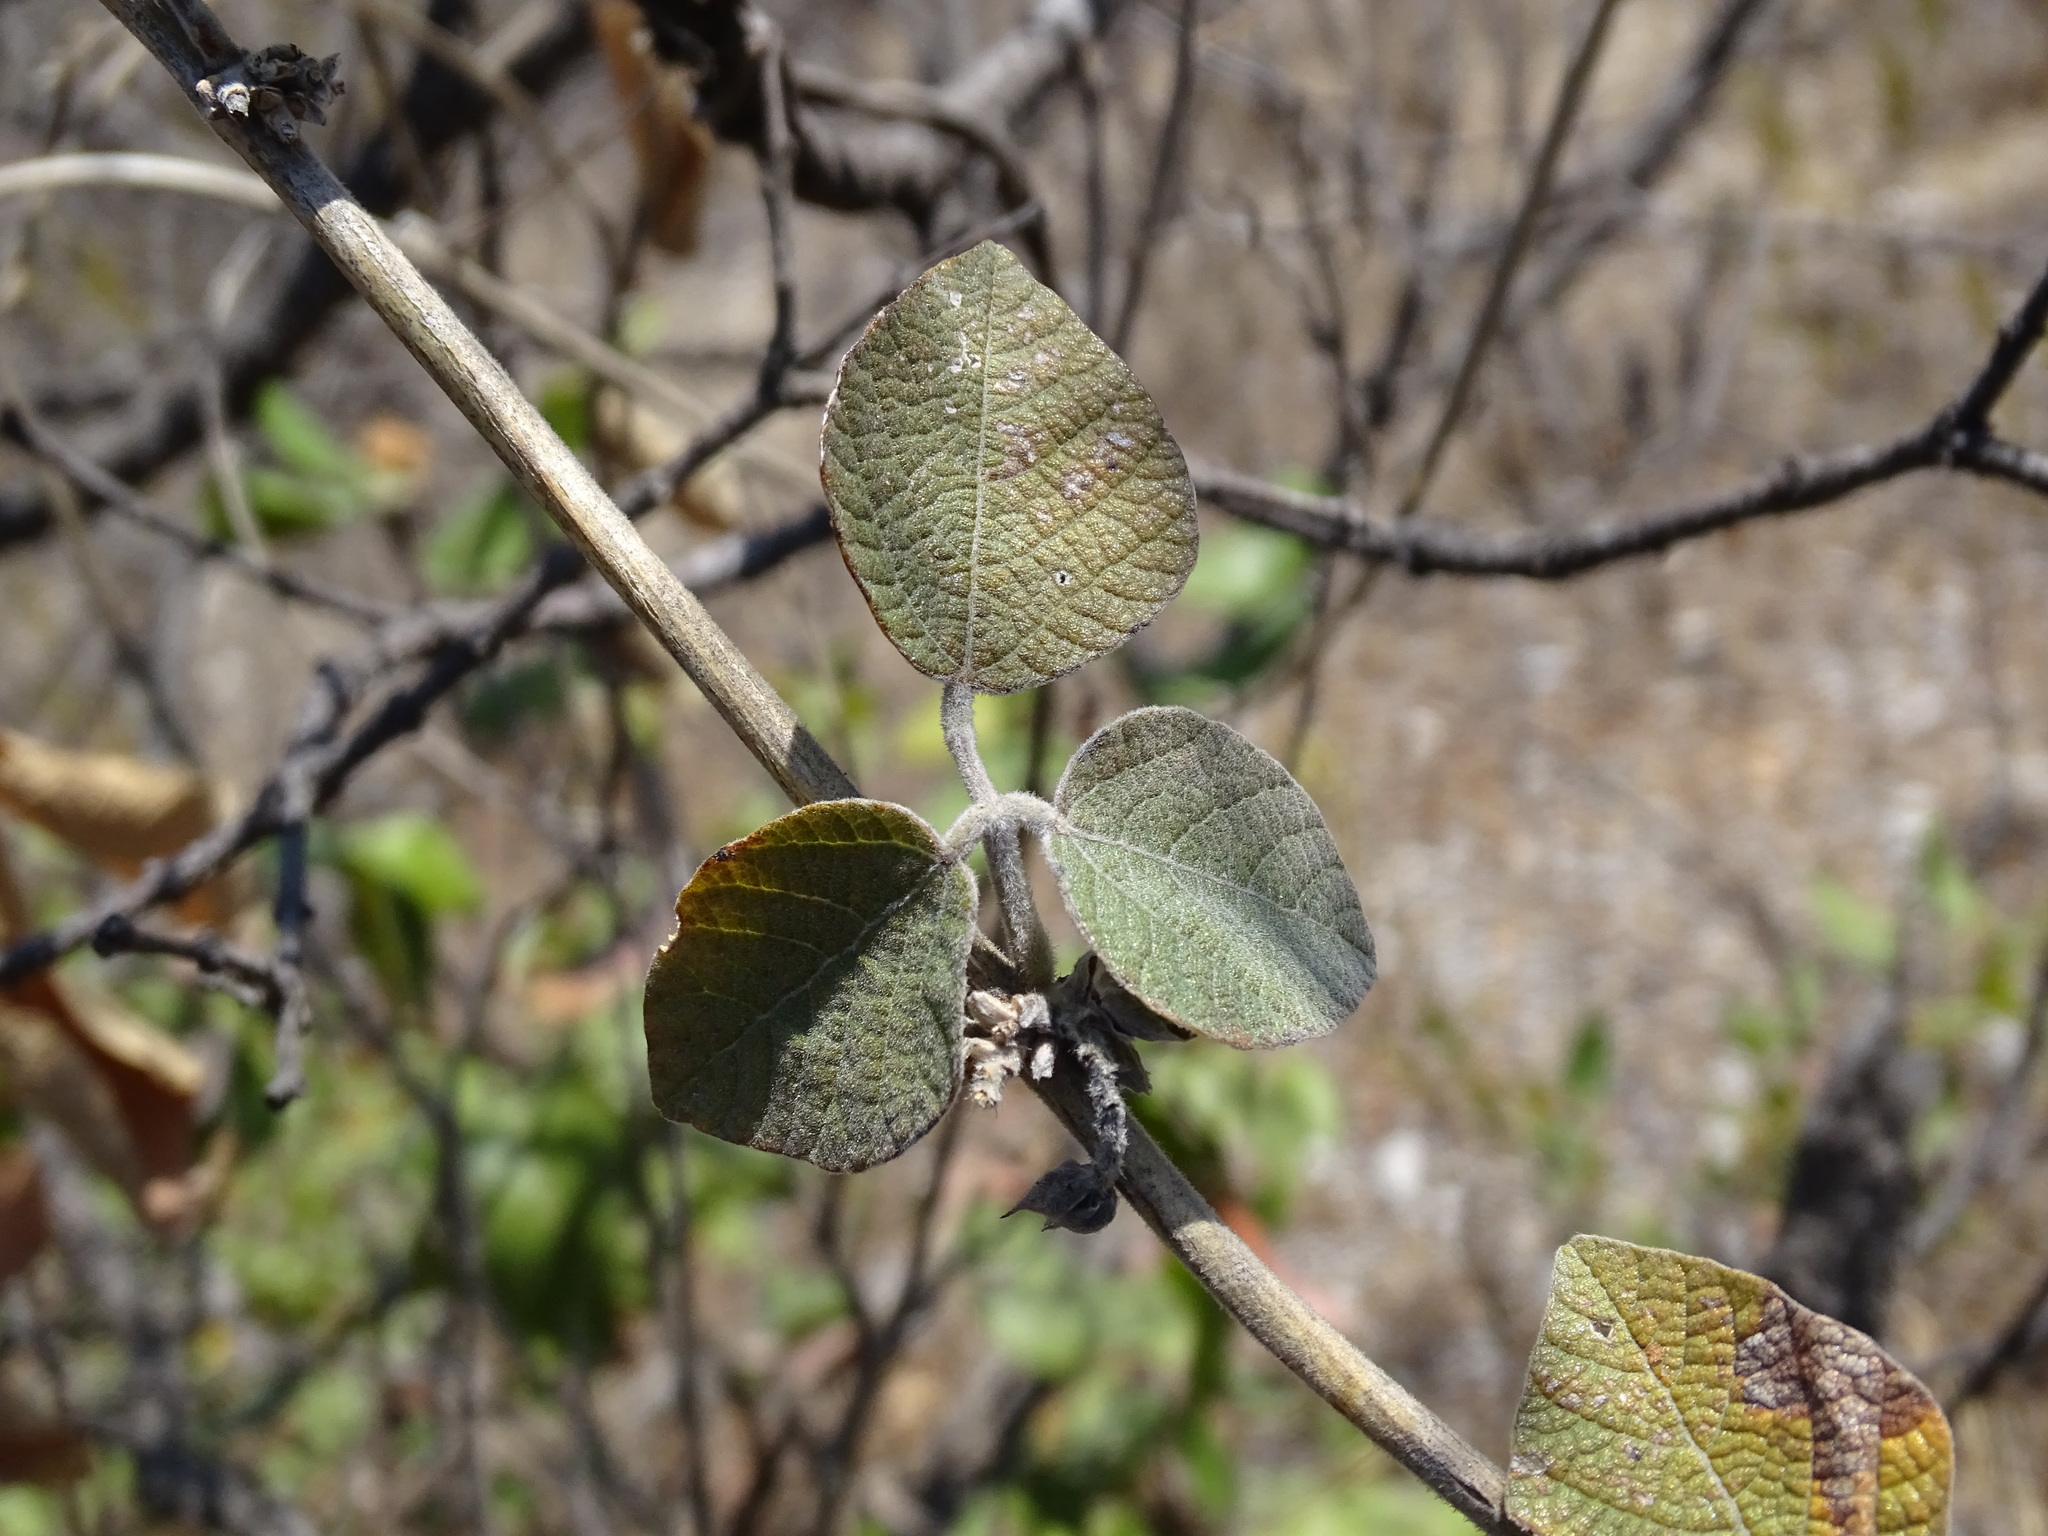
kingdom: Plantae
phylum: Tracheophyta
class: Magnoliopsida
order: Fabales
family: Fabaceae
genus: Nissolia
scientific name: Nissolia microptera
